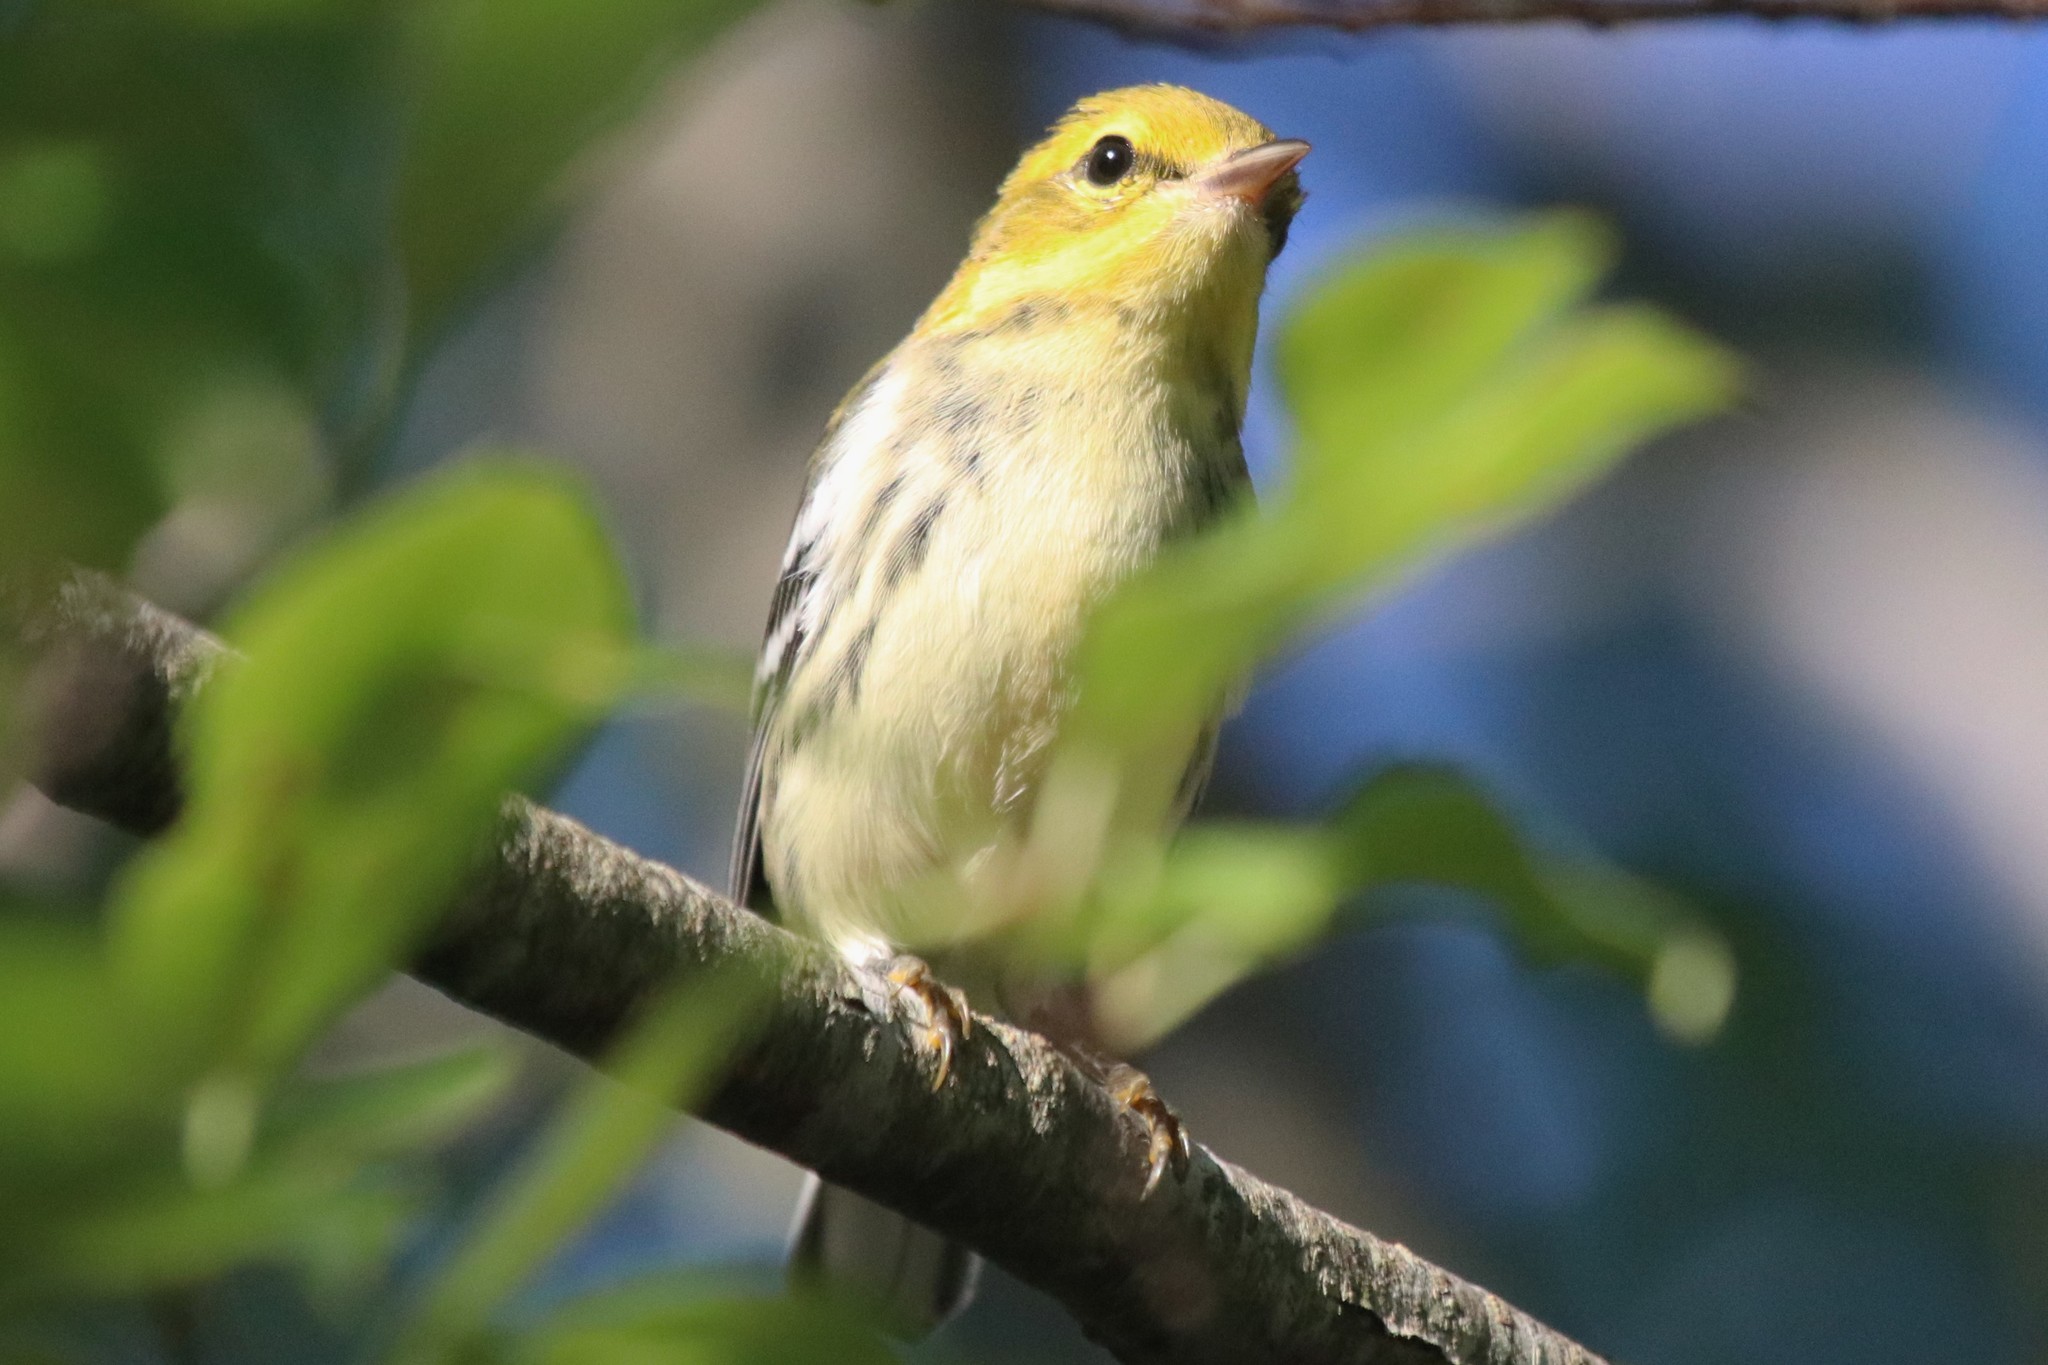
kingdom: Animalia
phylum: Chordata
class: Aves
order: Passeriformes
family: Parulidae
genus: Setophaga
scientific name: Setophaga virens
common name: Black-throated green warbler
